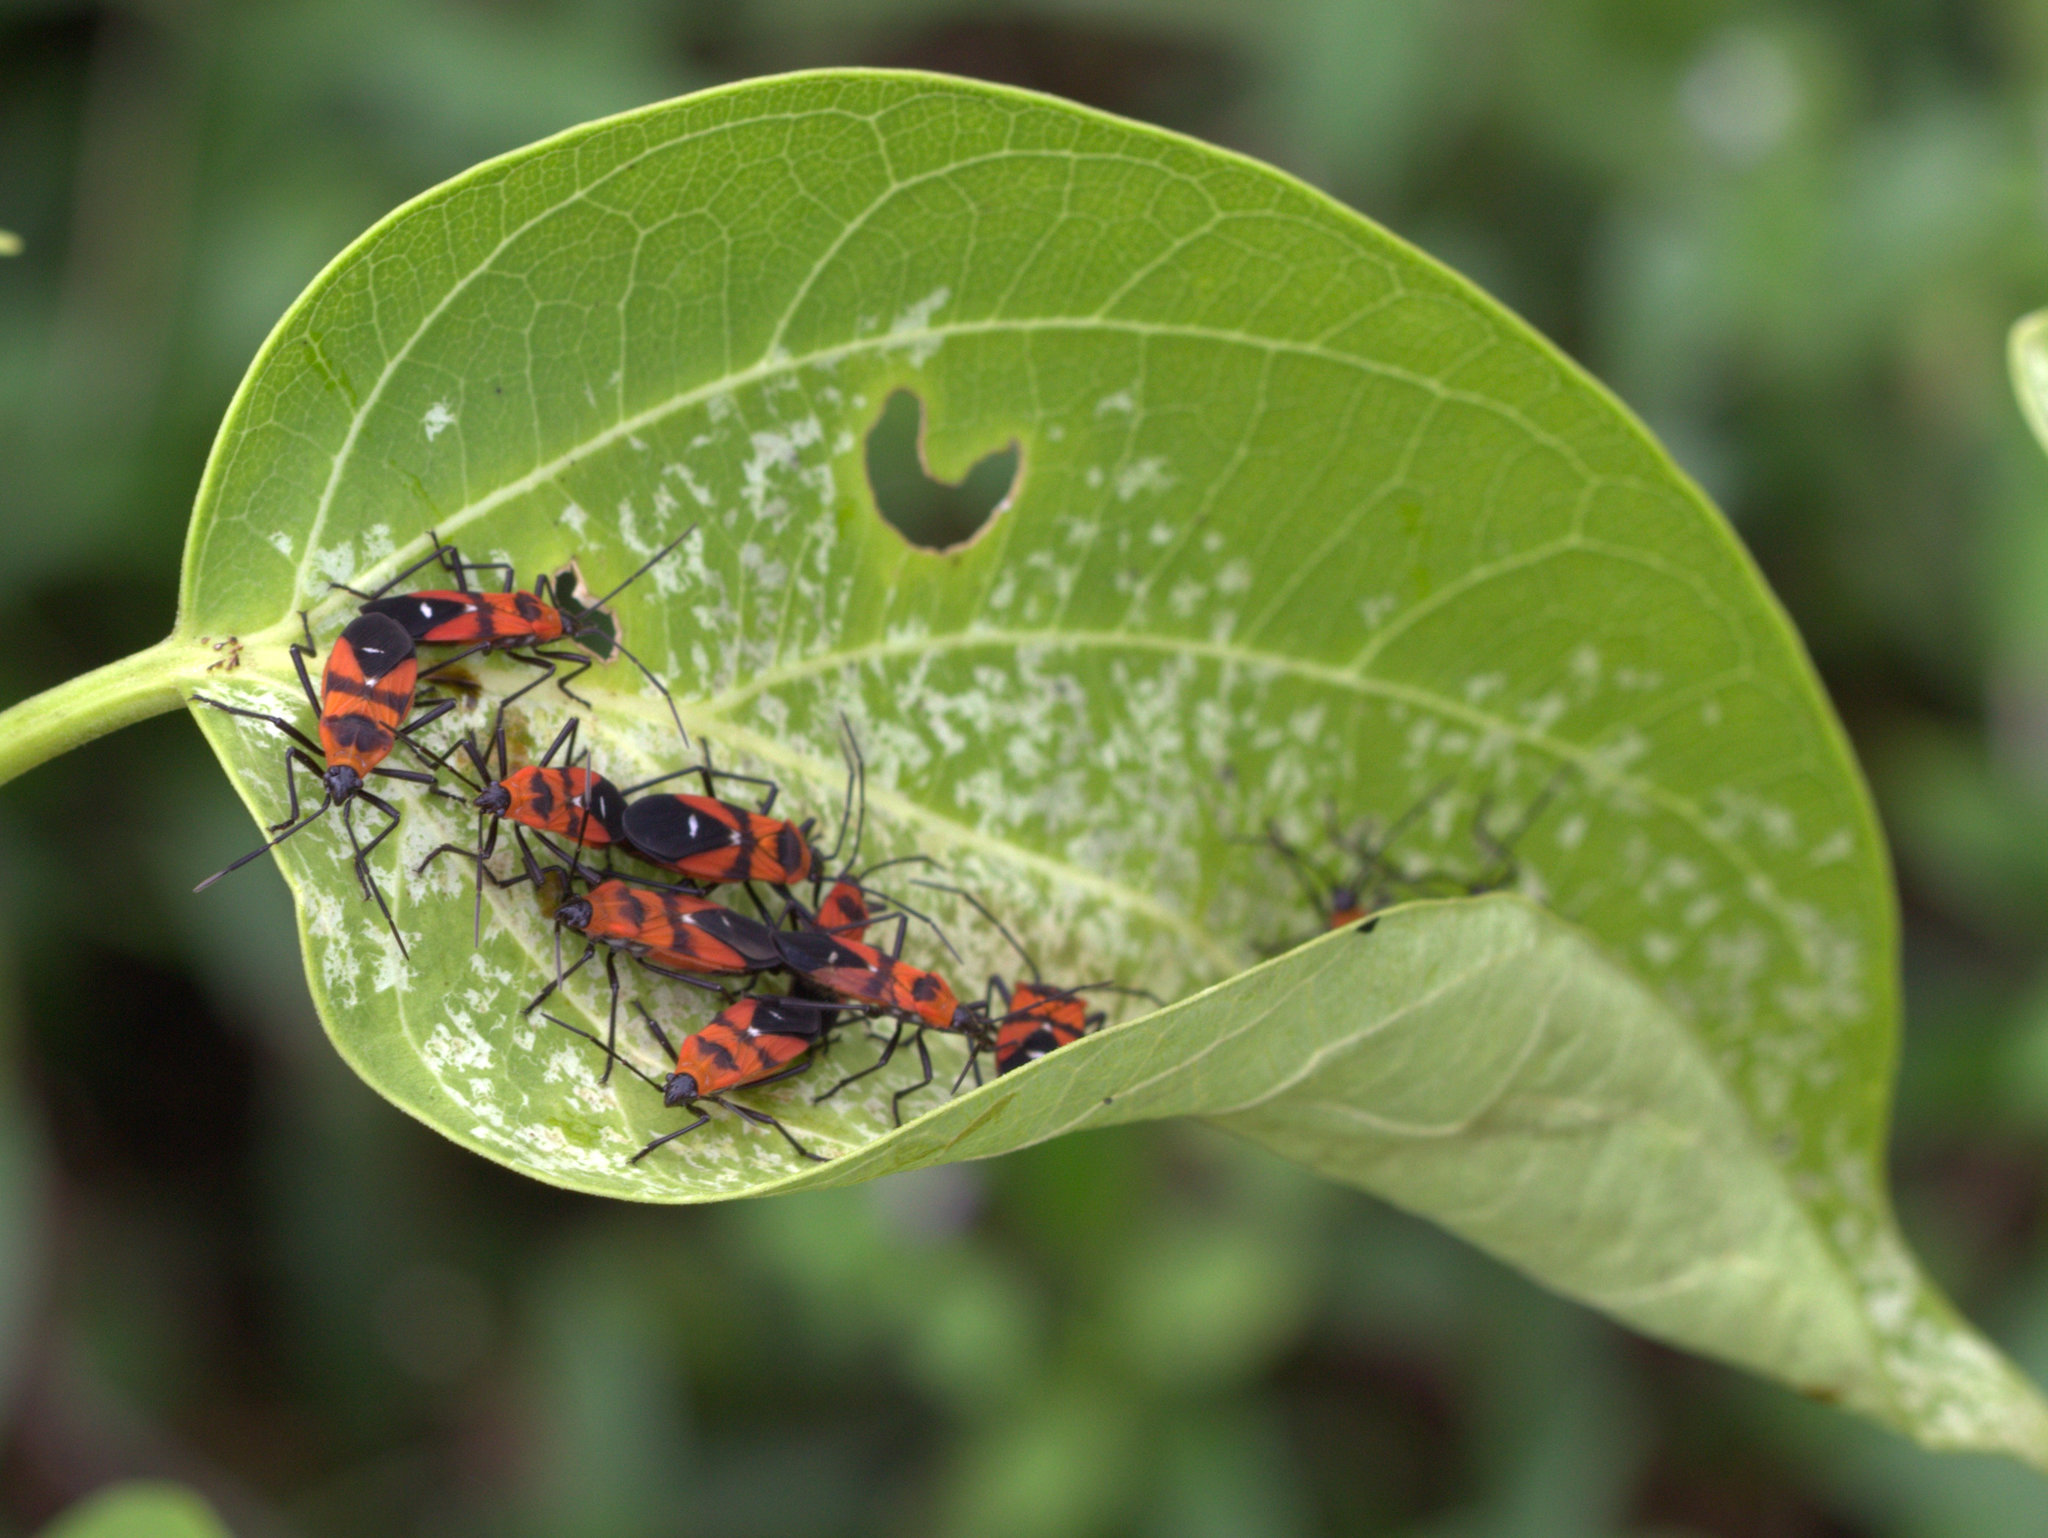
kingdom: Animalia
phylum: Arthropoda
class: Insecta
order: Hemiptera
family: Lygaeidae
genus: Oncopeltus
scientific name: Oncopeltus nigriceps
